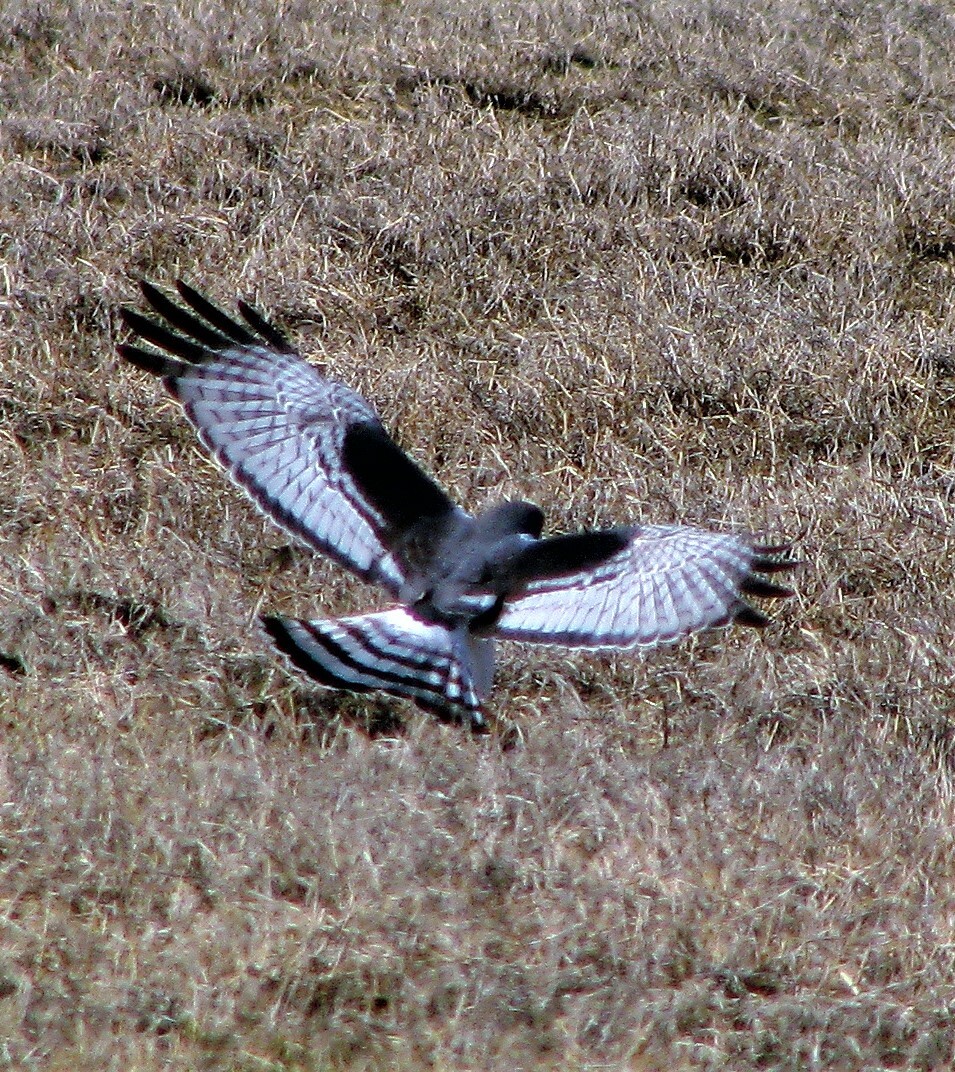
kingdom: Animalia
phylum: Chordata
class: Aves
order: Accipitriformes
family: Accipitridae
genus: Circus
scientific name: Circus buffoni
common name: Long-winged harrier
